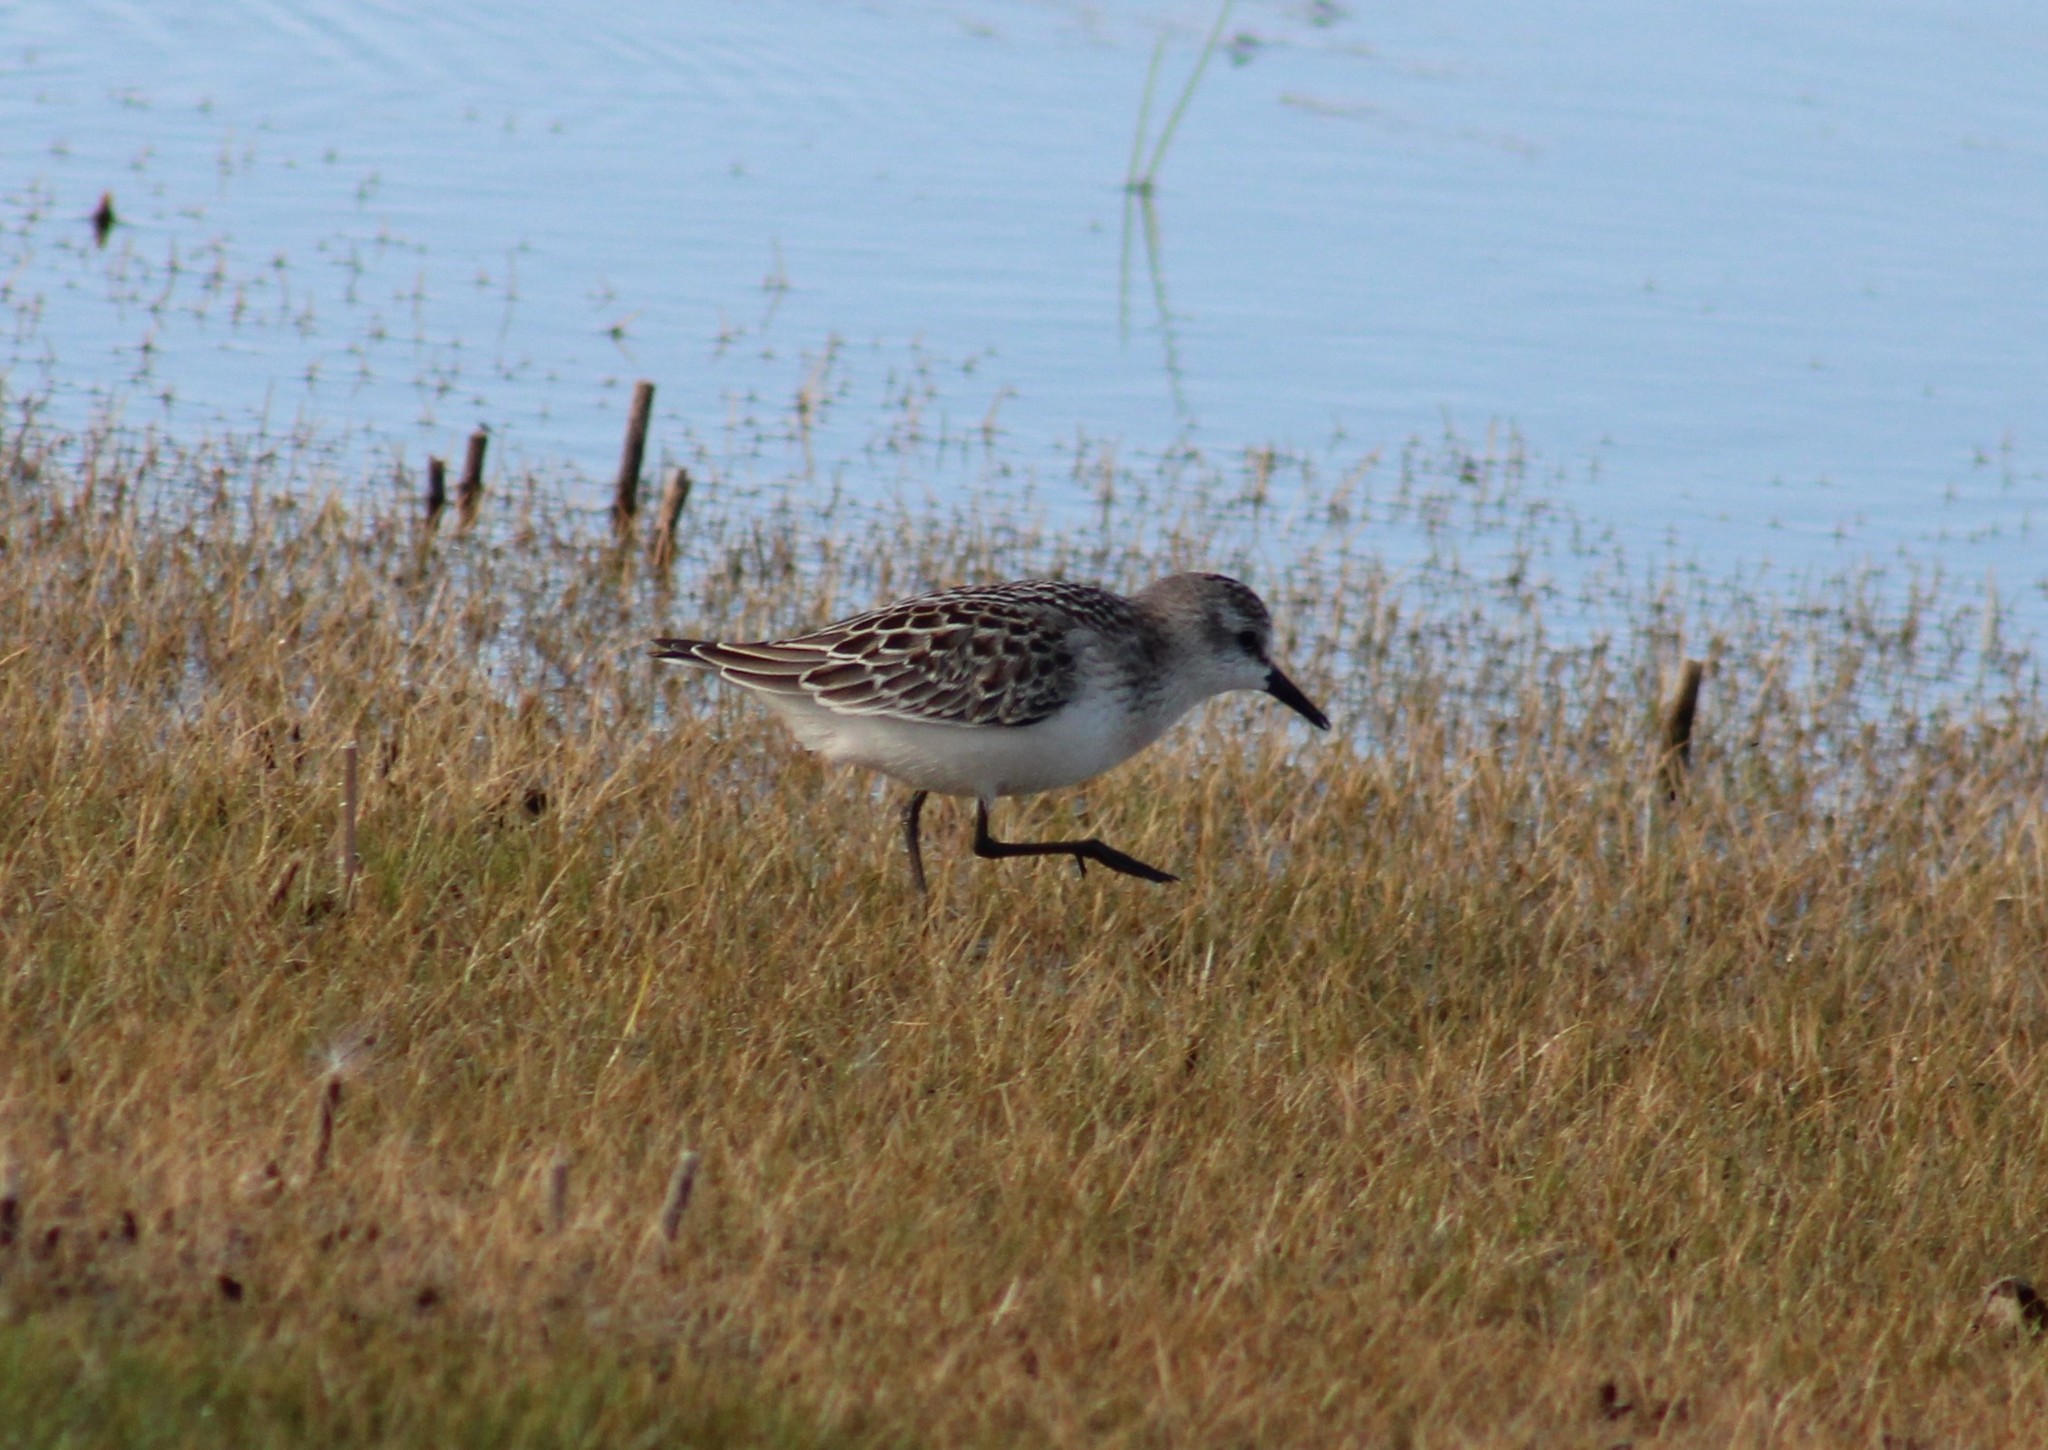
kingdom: Animalia
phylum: Chordata
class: Aves
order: Charadriiformes
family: Scolopacidae
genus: Calidris
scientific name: Calidris pusilla
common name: Semipalmated sandpiper
